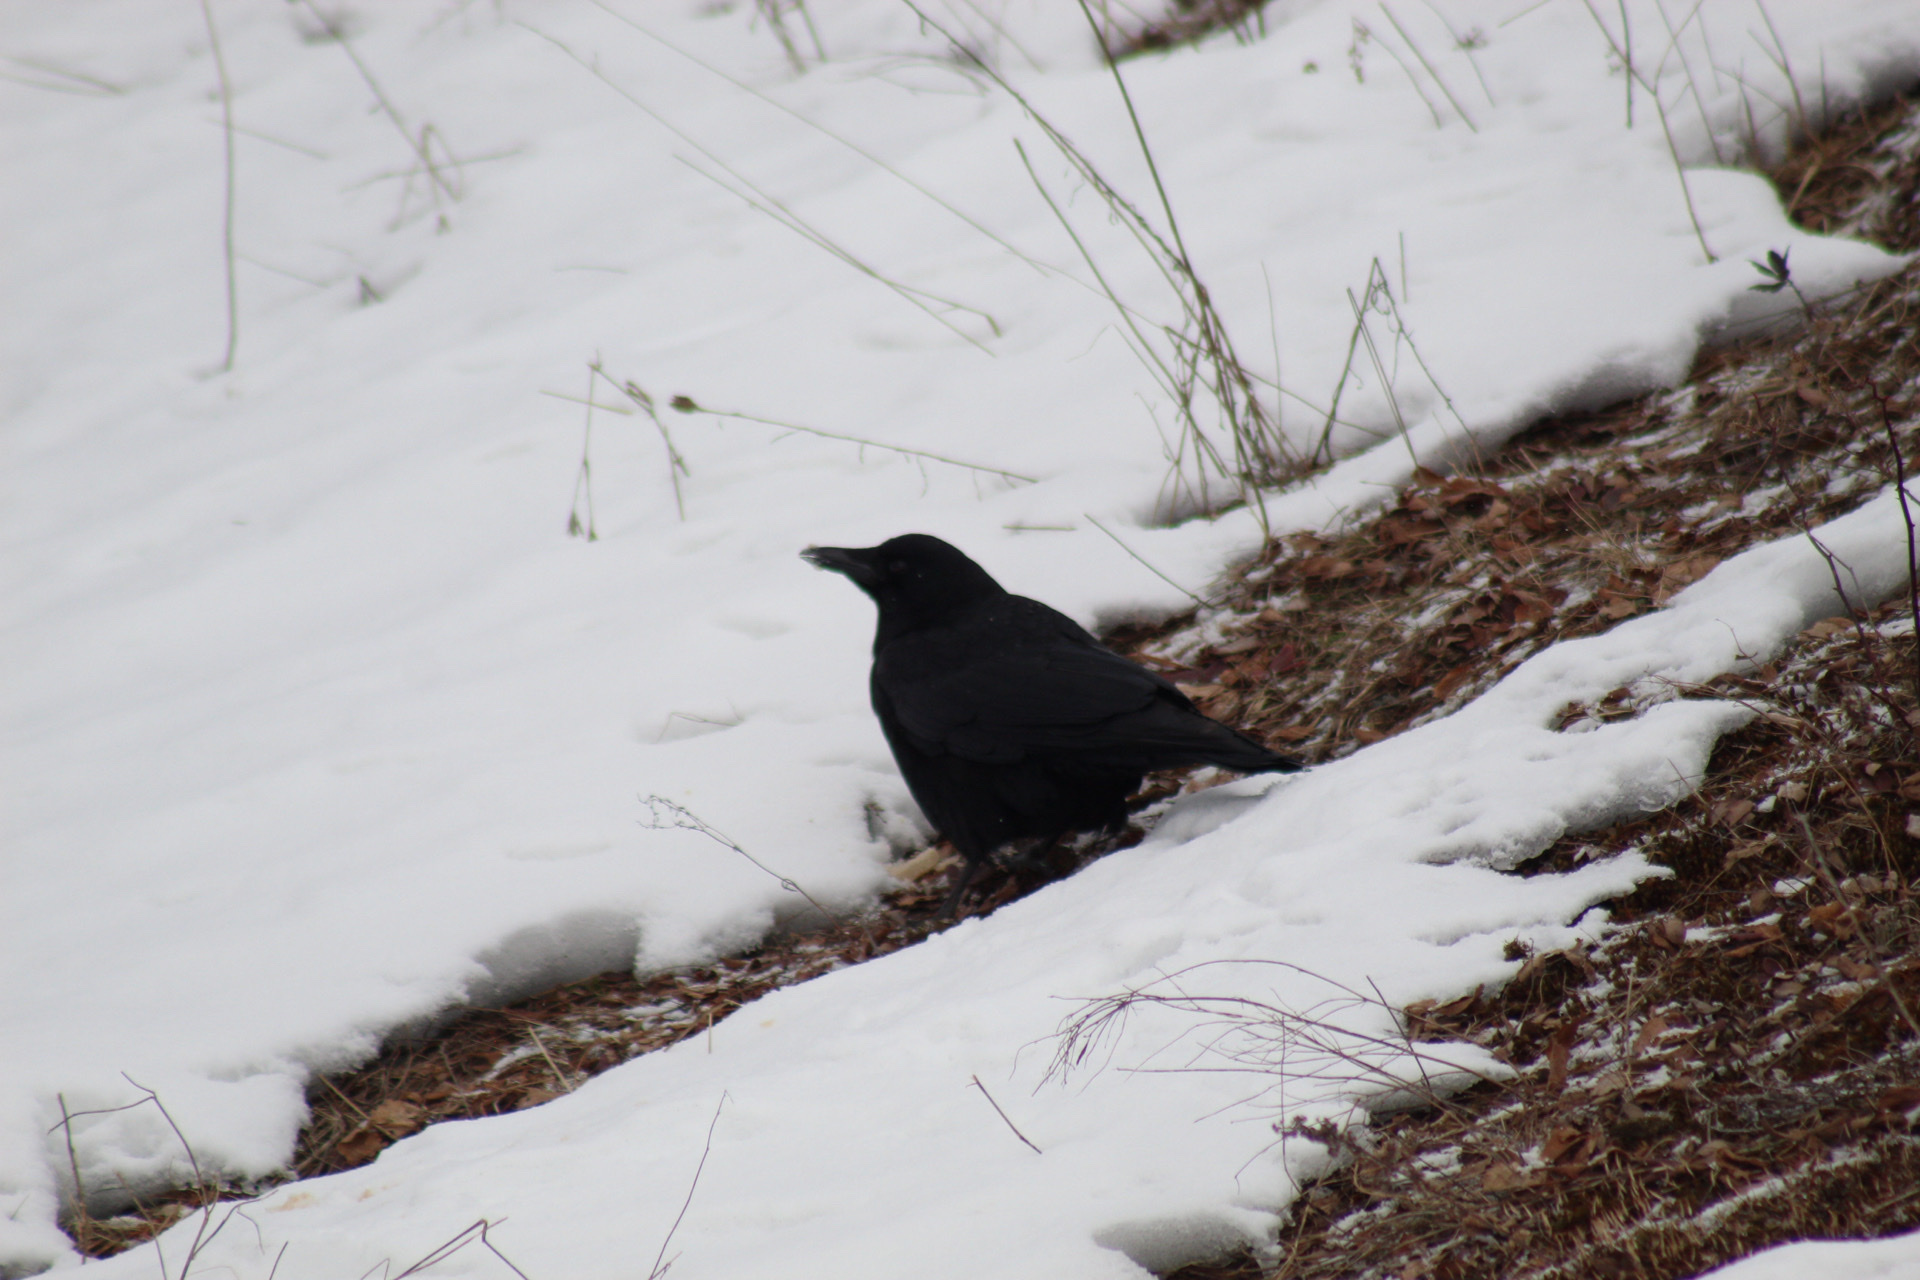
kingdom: Animalia
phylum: Chordata
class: Aves
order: Passeriformes
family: Corvidae
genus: Corvus
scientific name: Corvus brachyrhynchos
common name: American crow
